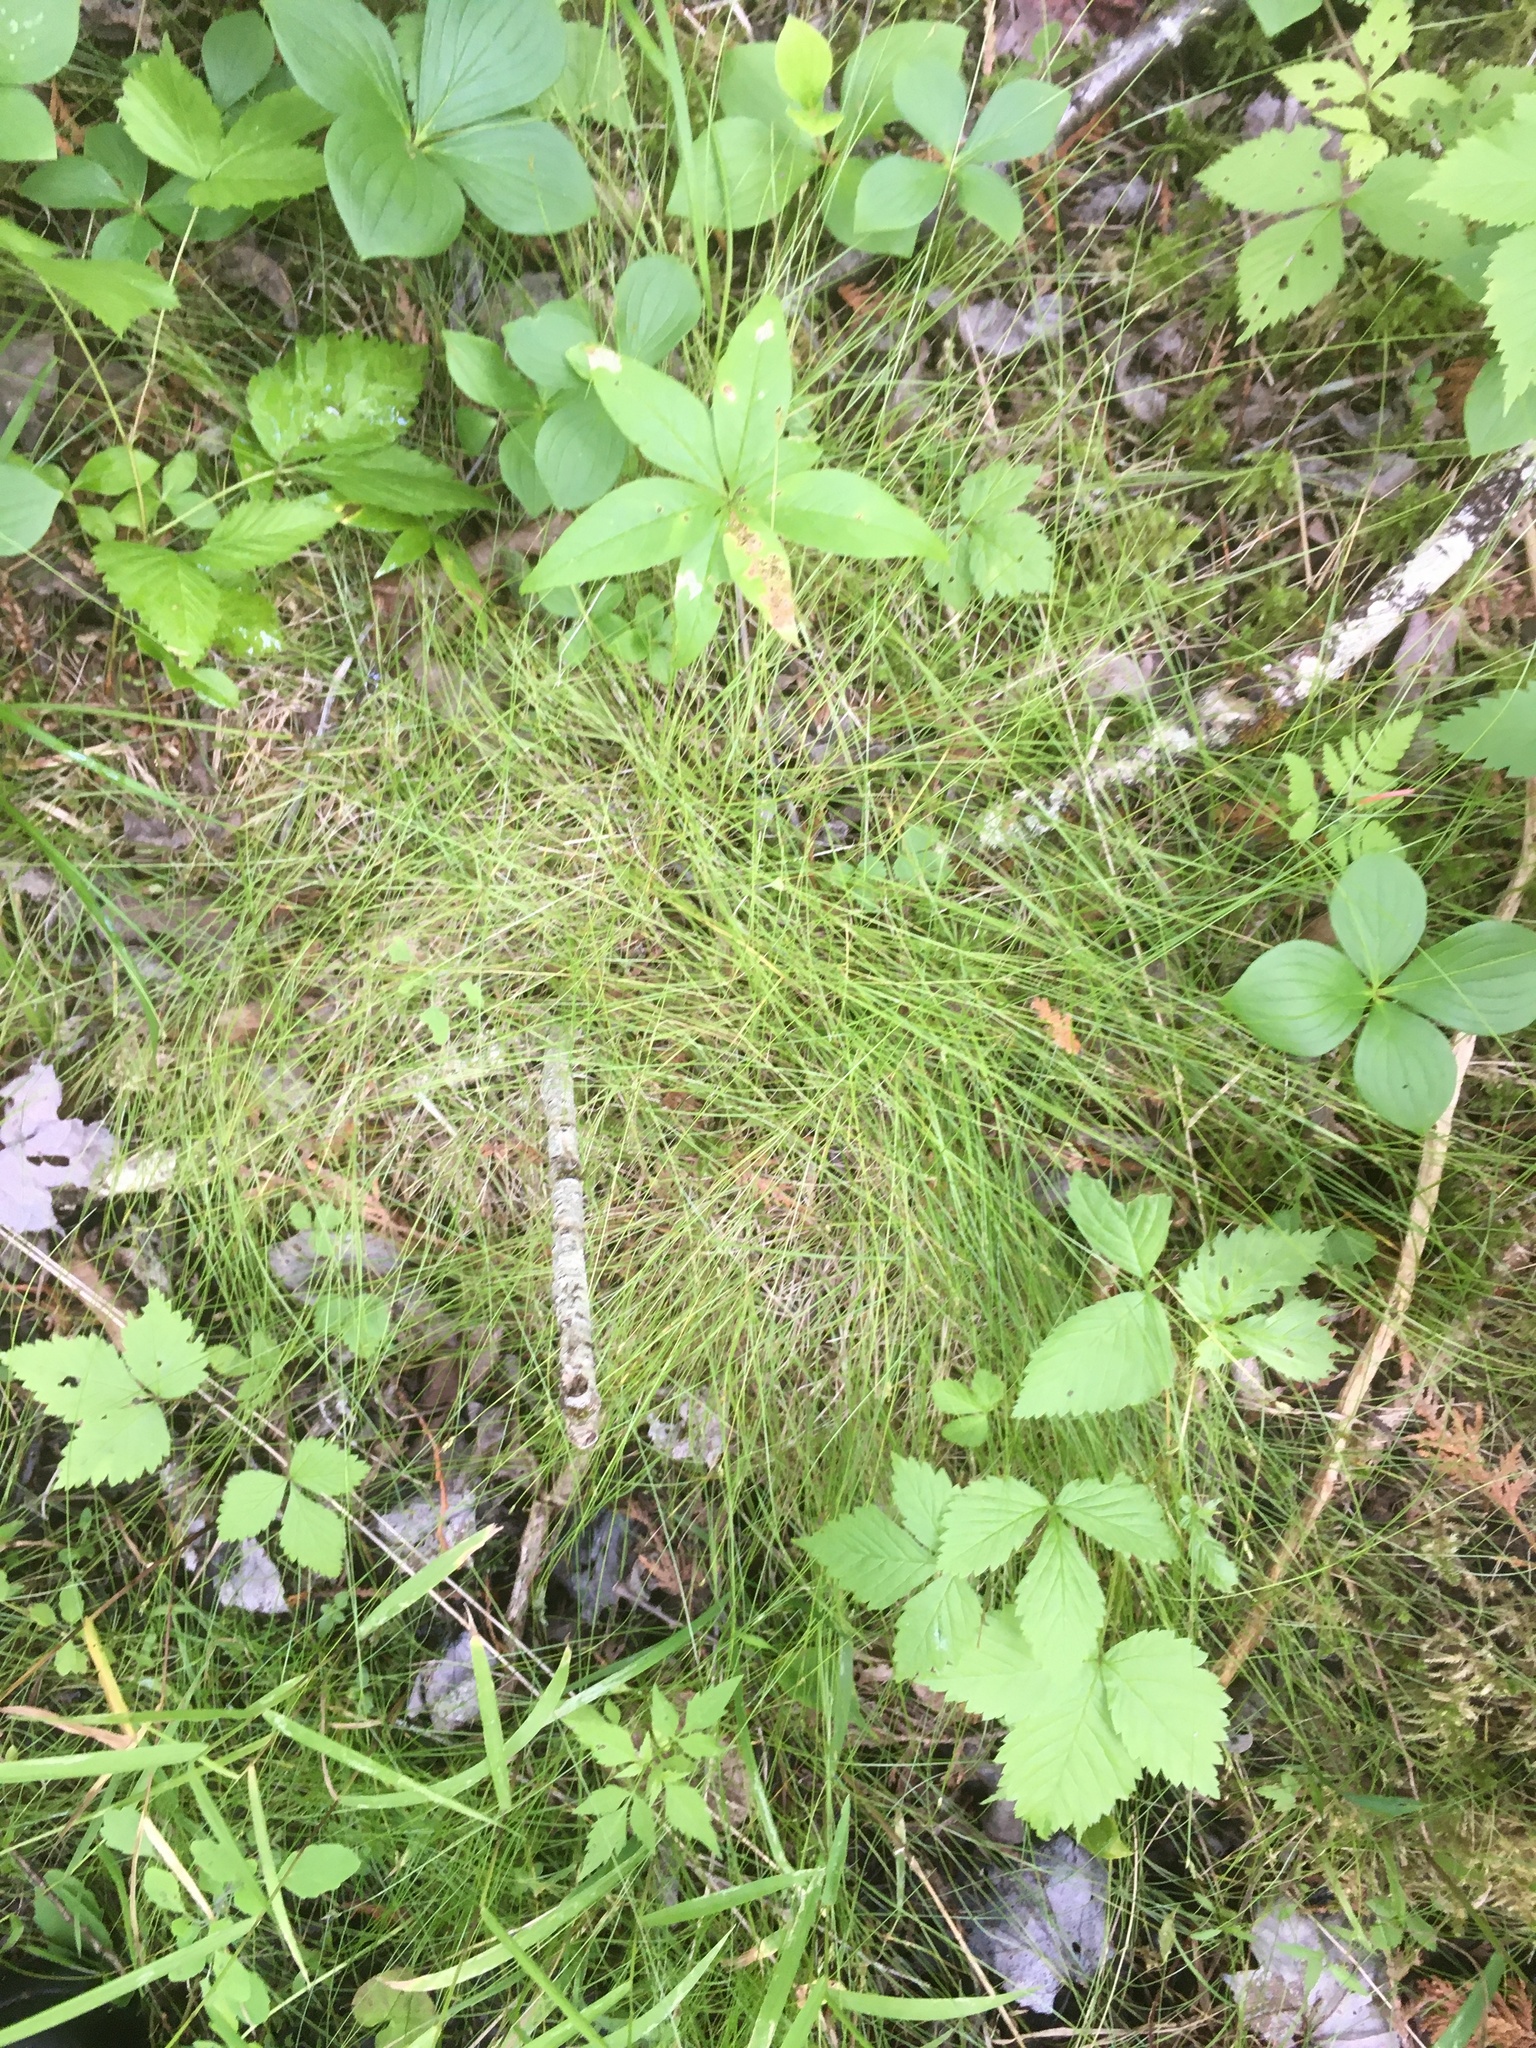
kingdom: Plantae
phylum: Tracheophyta
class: Liliopsida
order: Poales
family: Cyperaceae
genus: Carex
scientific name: Carex leptalea
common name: Bristly-stalked sedge
